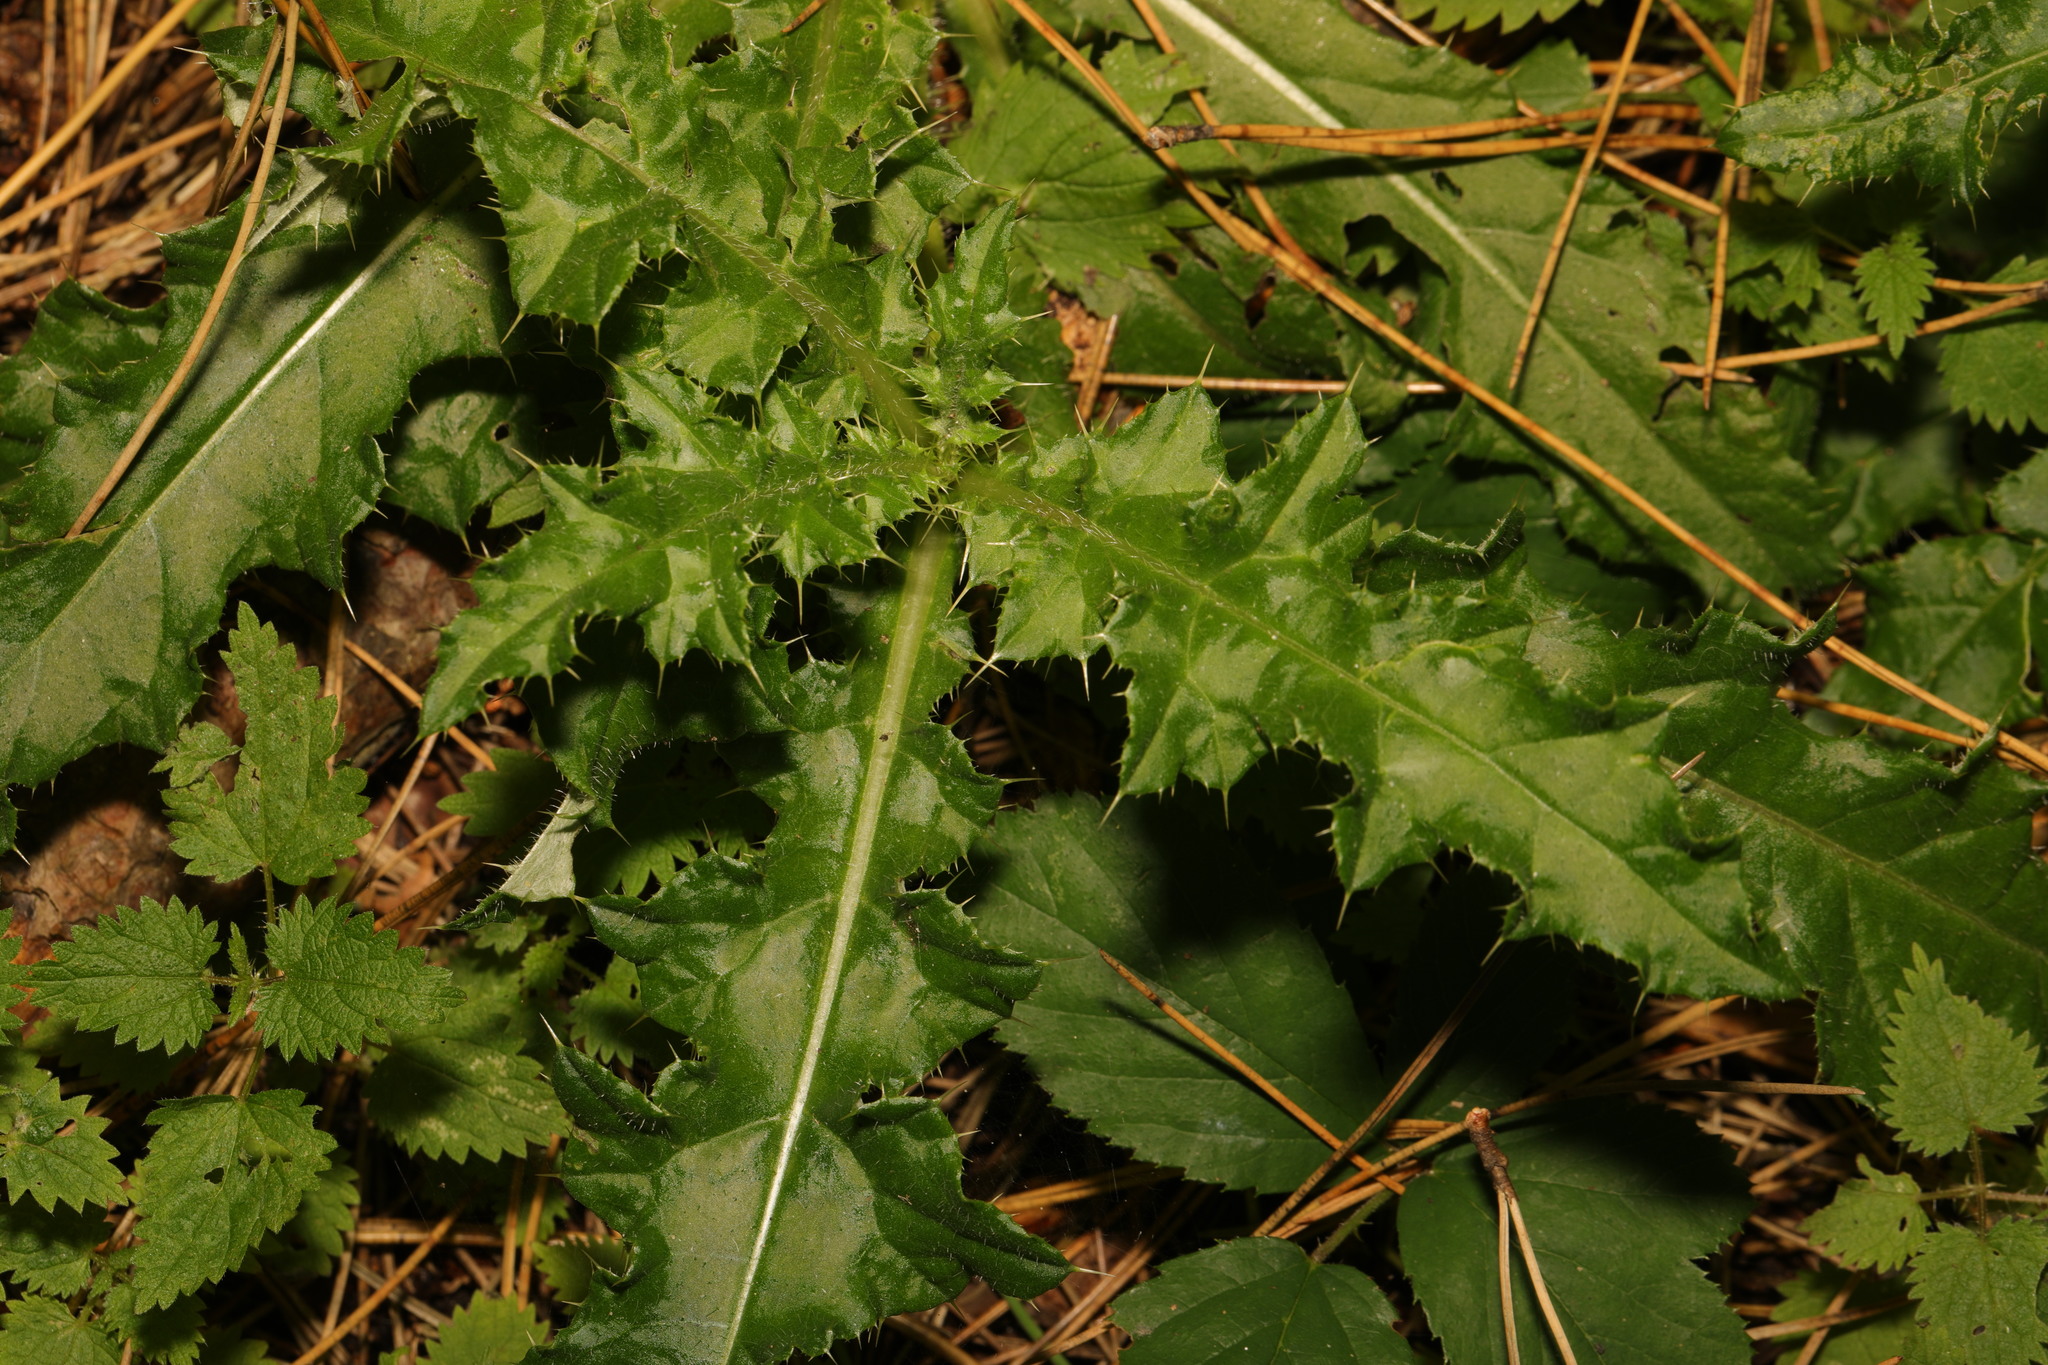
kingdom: Plantae
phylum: Tracheophyta
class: Magnoliopsida
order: Asterales
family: Asteraceae
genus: Cirsium
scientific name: Cirsium arvense
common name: Creeping thistle
